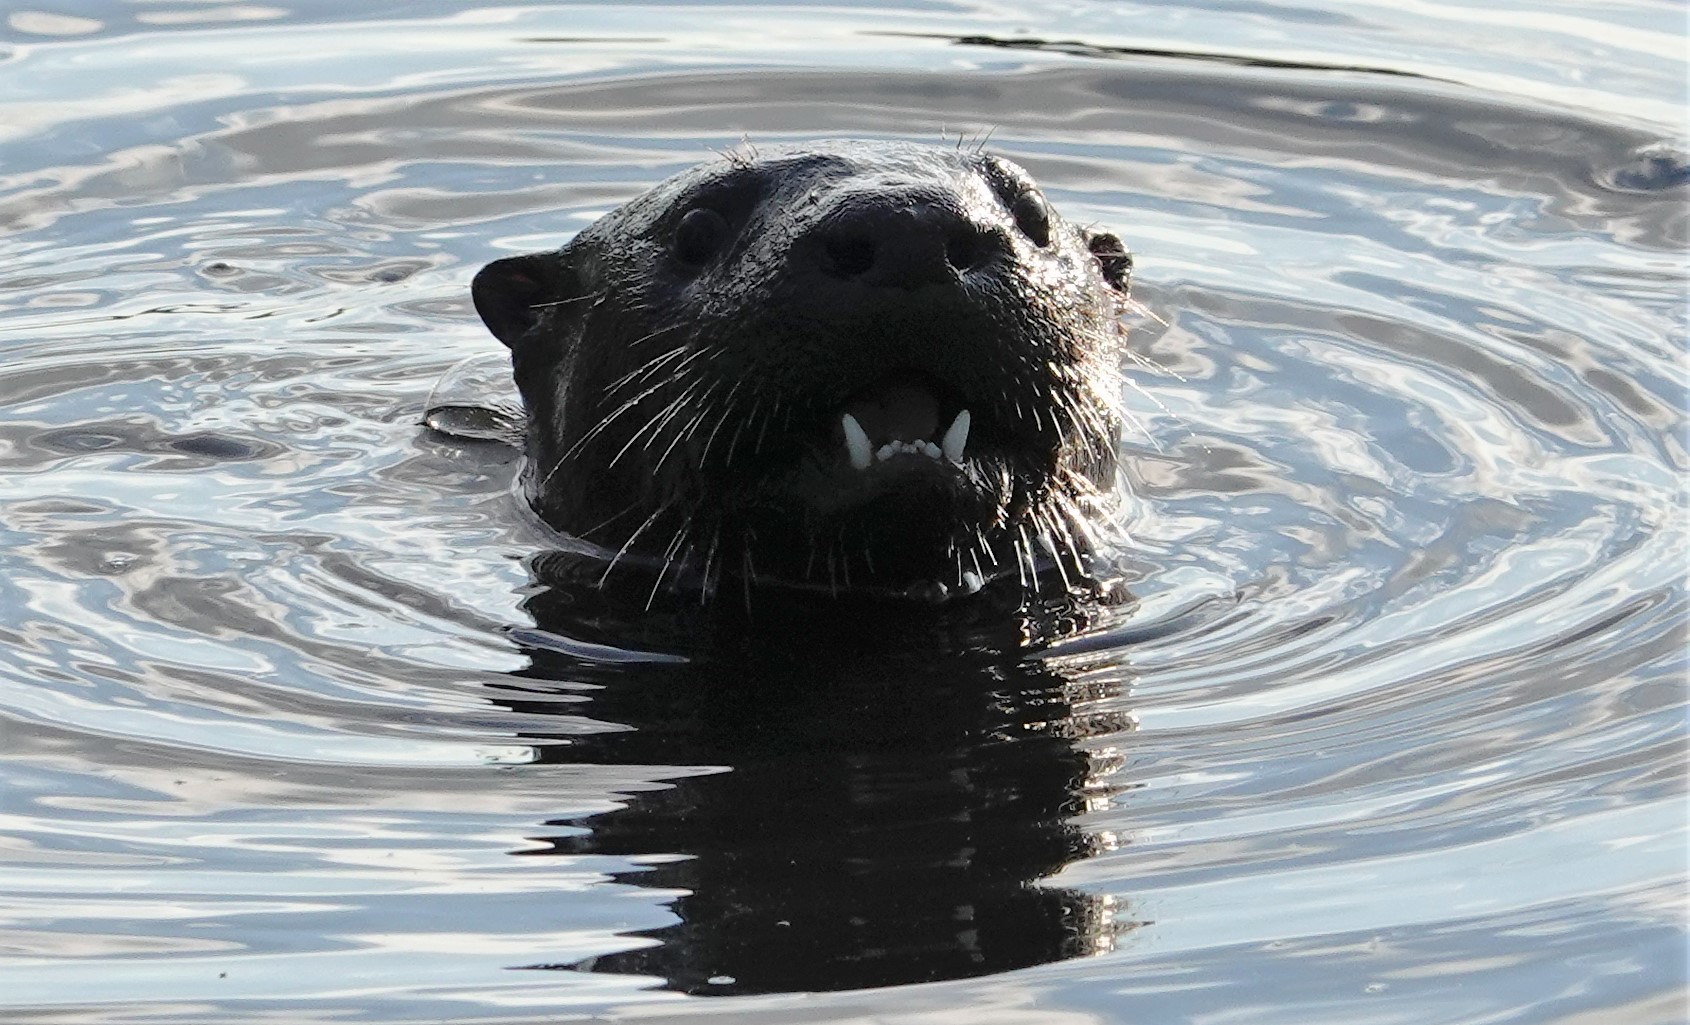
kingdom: Animalia
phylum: Chordata
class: Mammalia
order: Carnivora
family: Mustelidae
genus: Lontra
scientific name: Lontra canadensis
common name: North american river otter
